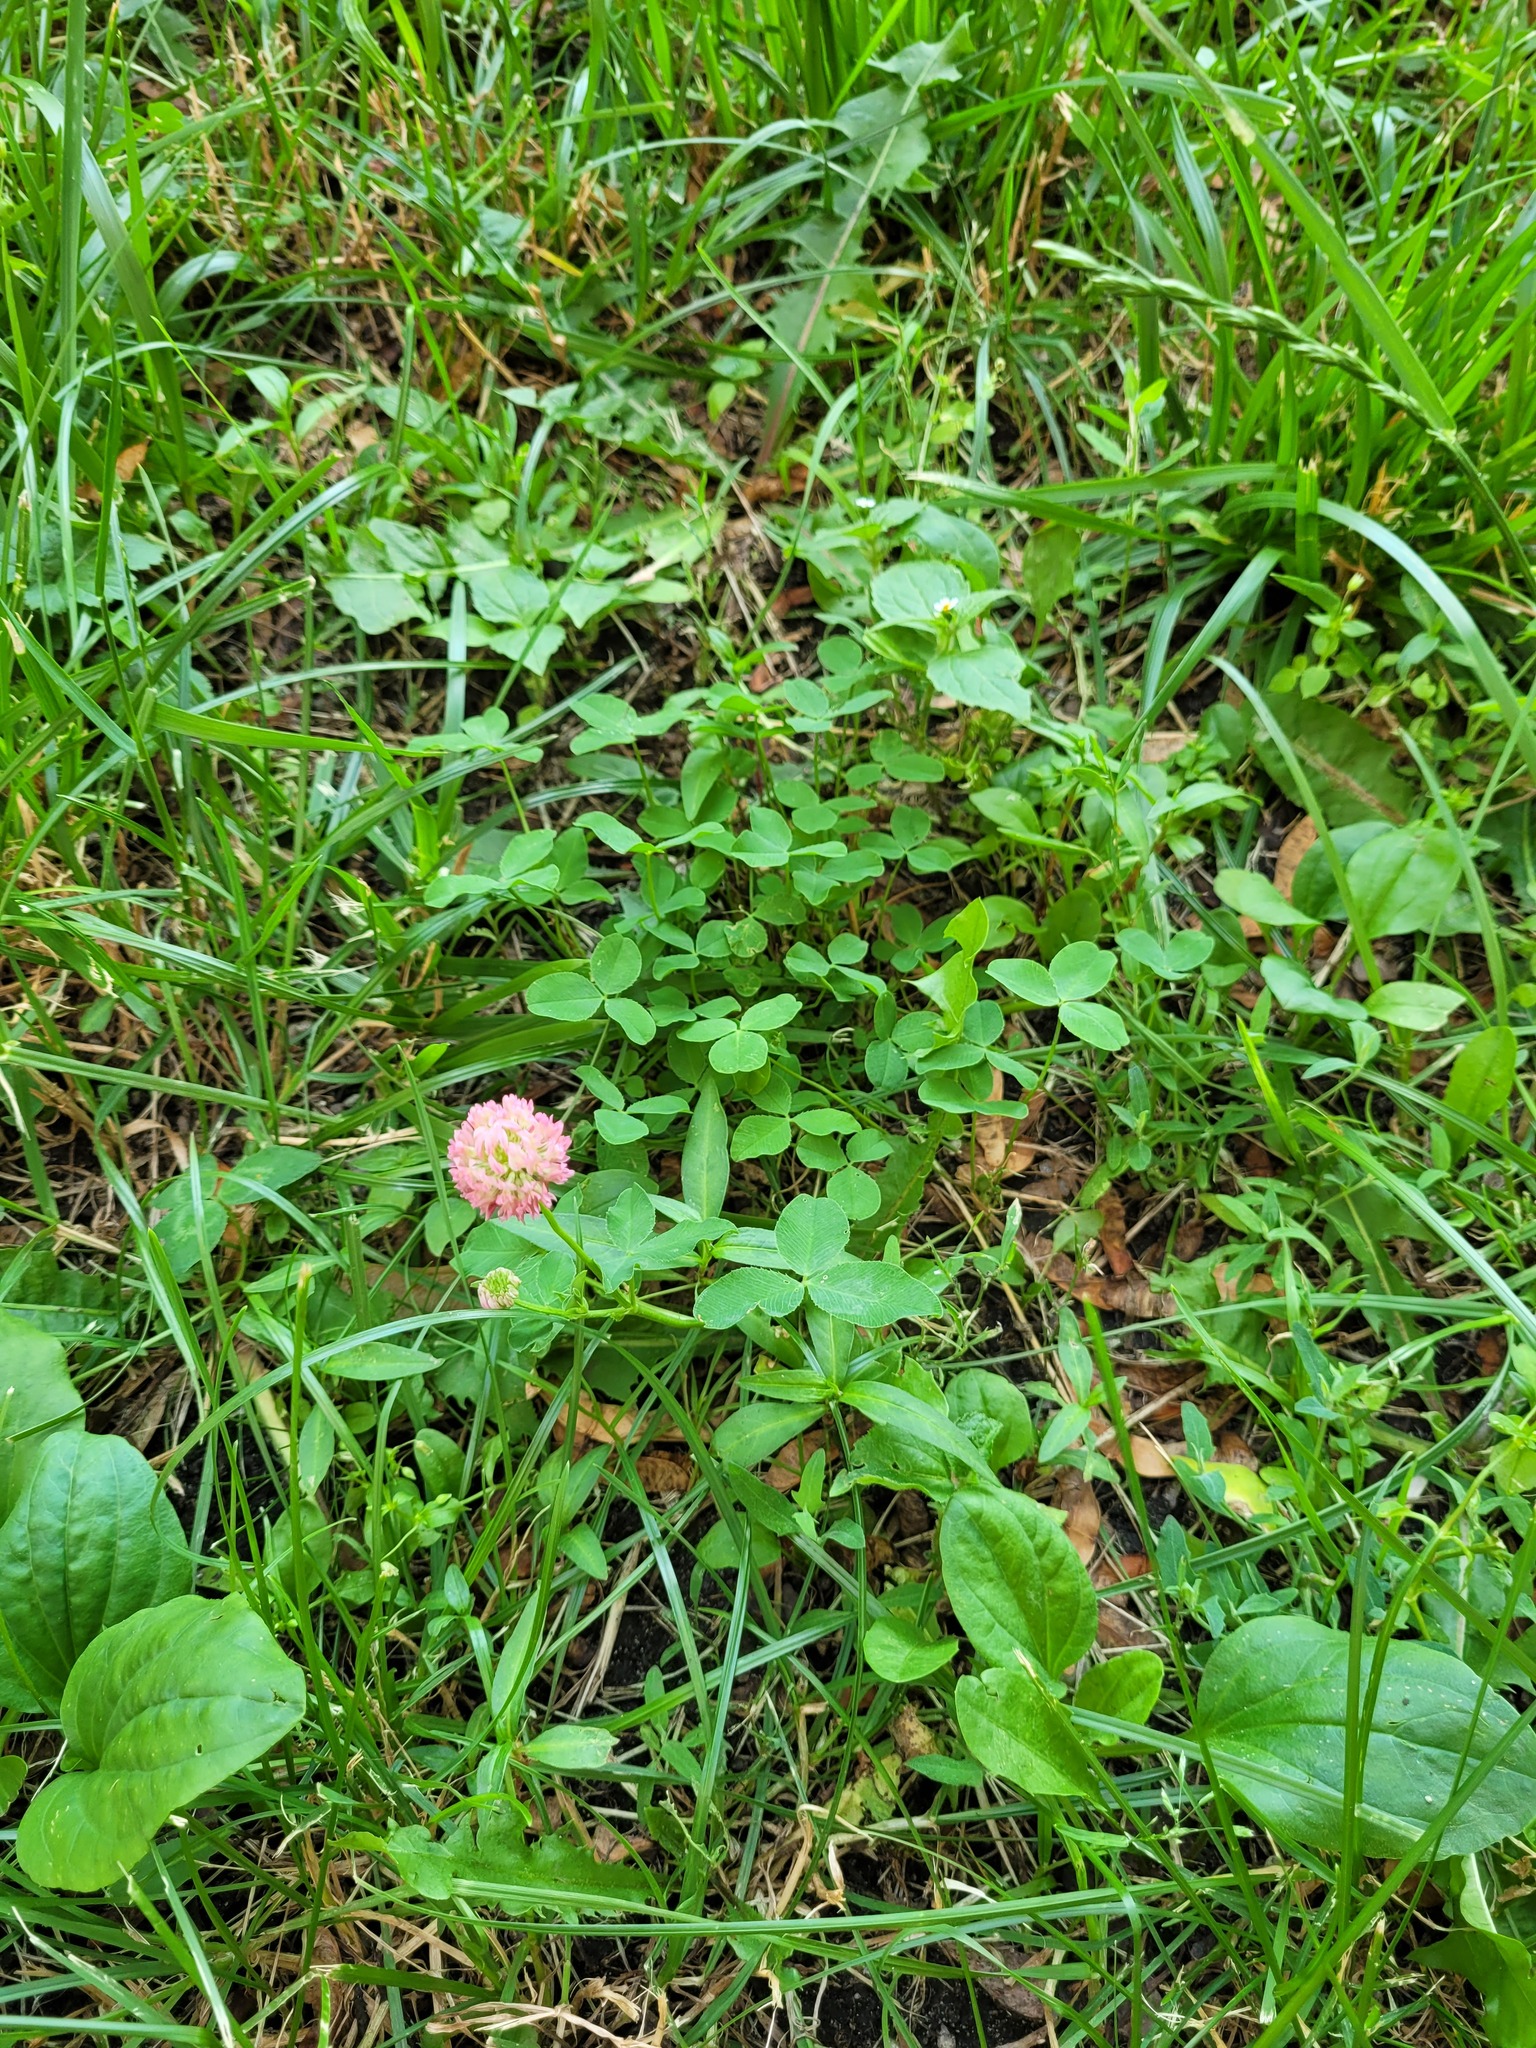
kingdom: Plantae
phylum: Tracheophyta
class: Magnoliopsida
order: Fabales
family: Fabaceae
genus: Trifolium
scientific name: Trifolium hybridum
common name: Alsike clover
